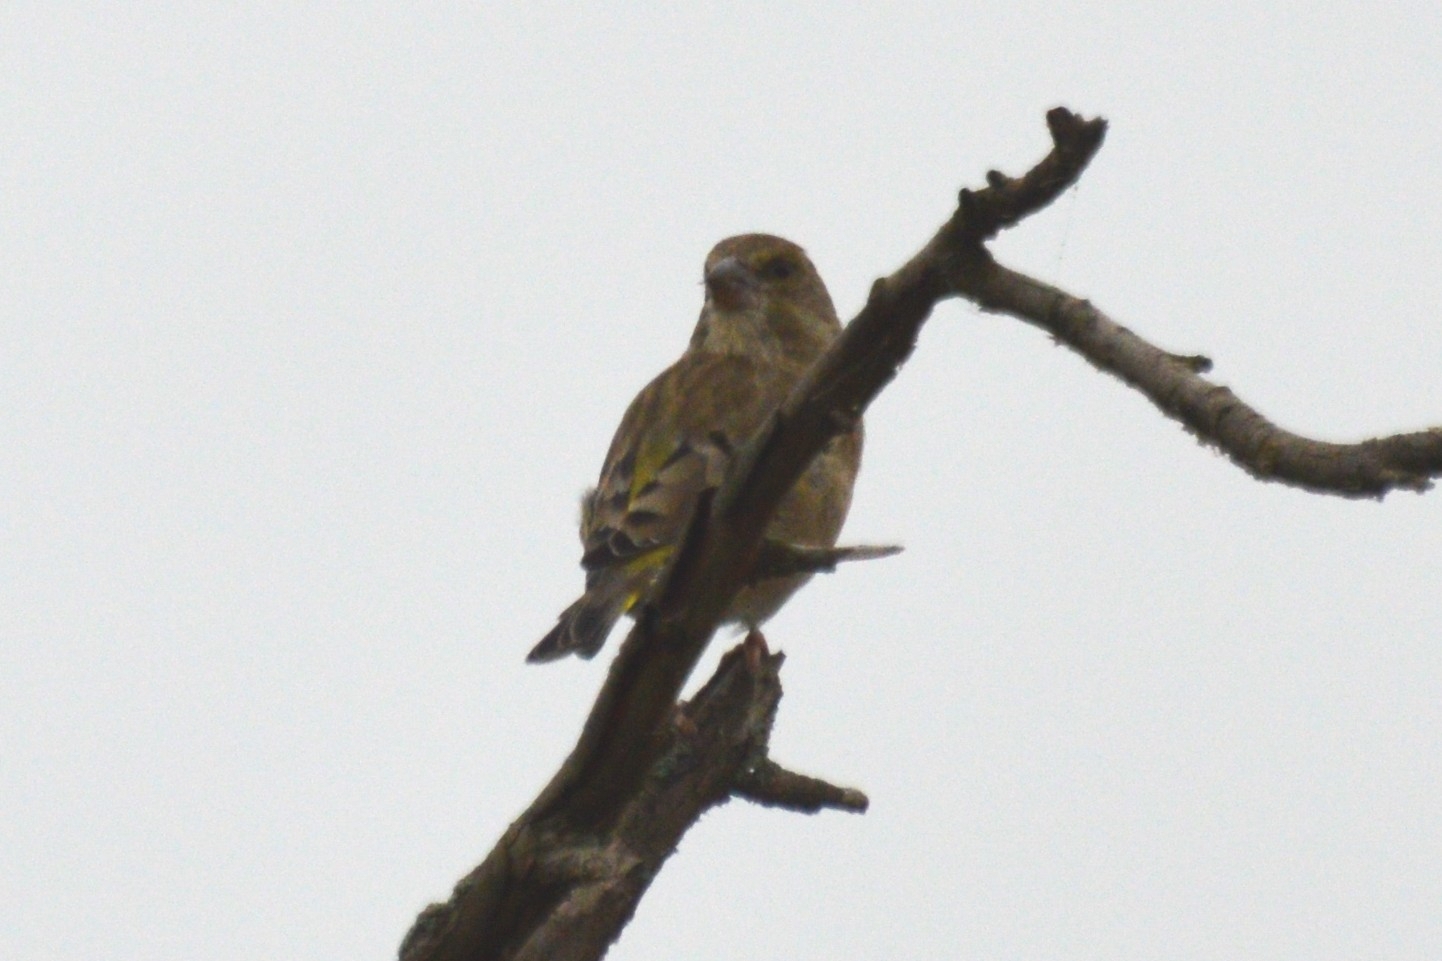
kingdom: Plantae
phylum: Tracheophyta
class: Liliopsida
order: Poales
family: Poaceae
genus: Chloris
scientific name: Chloris chloris
